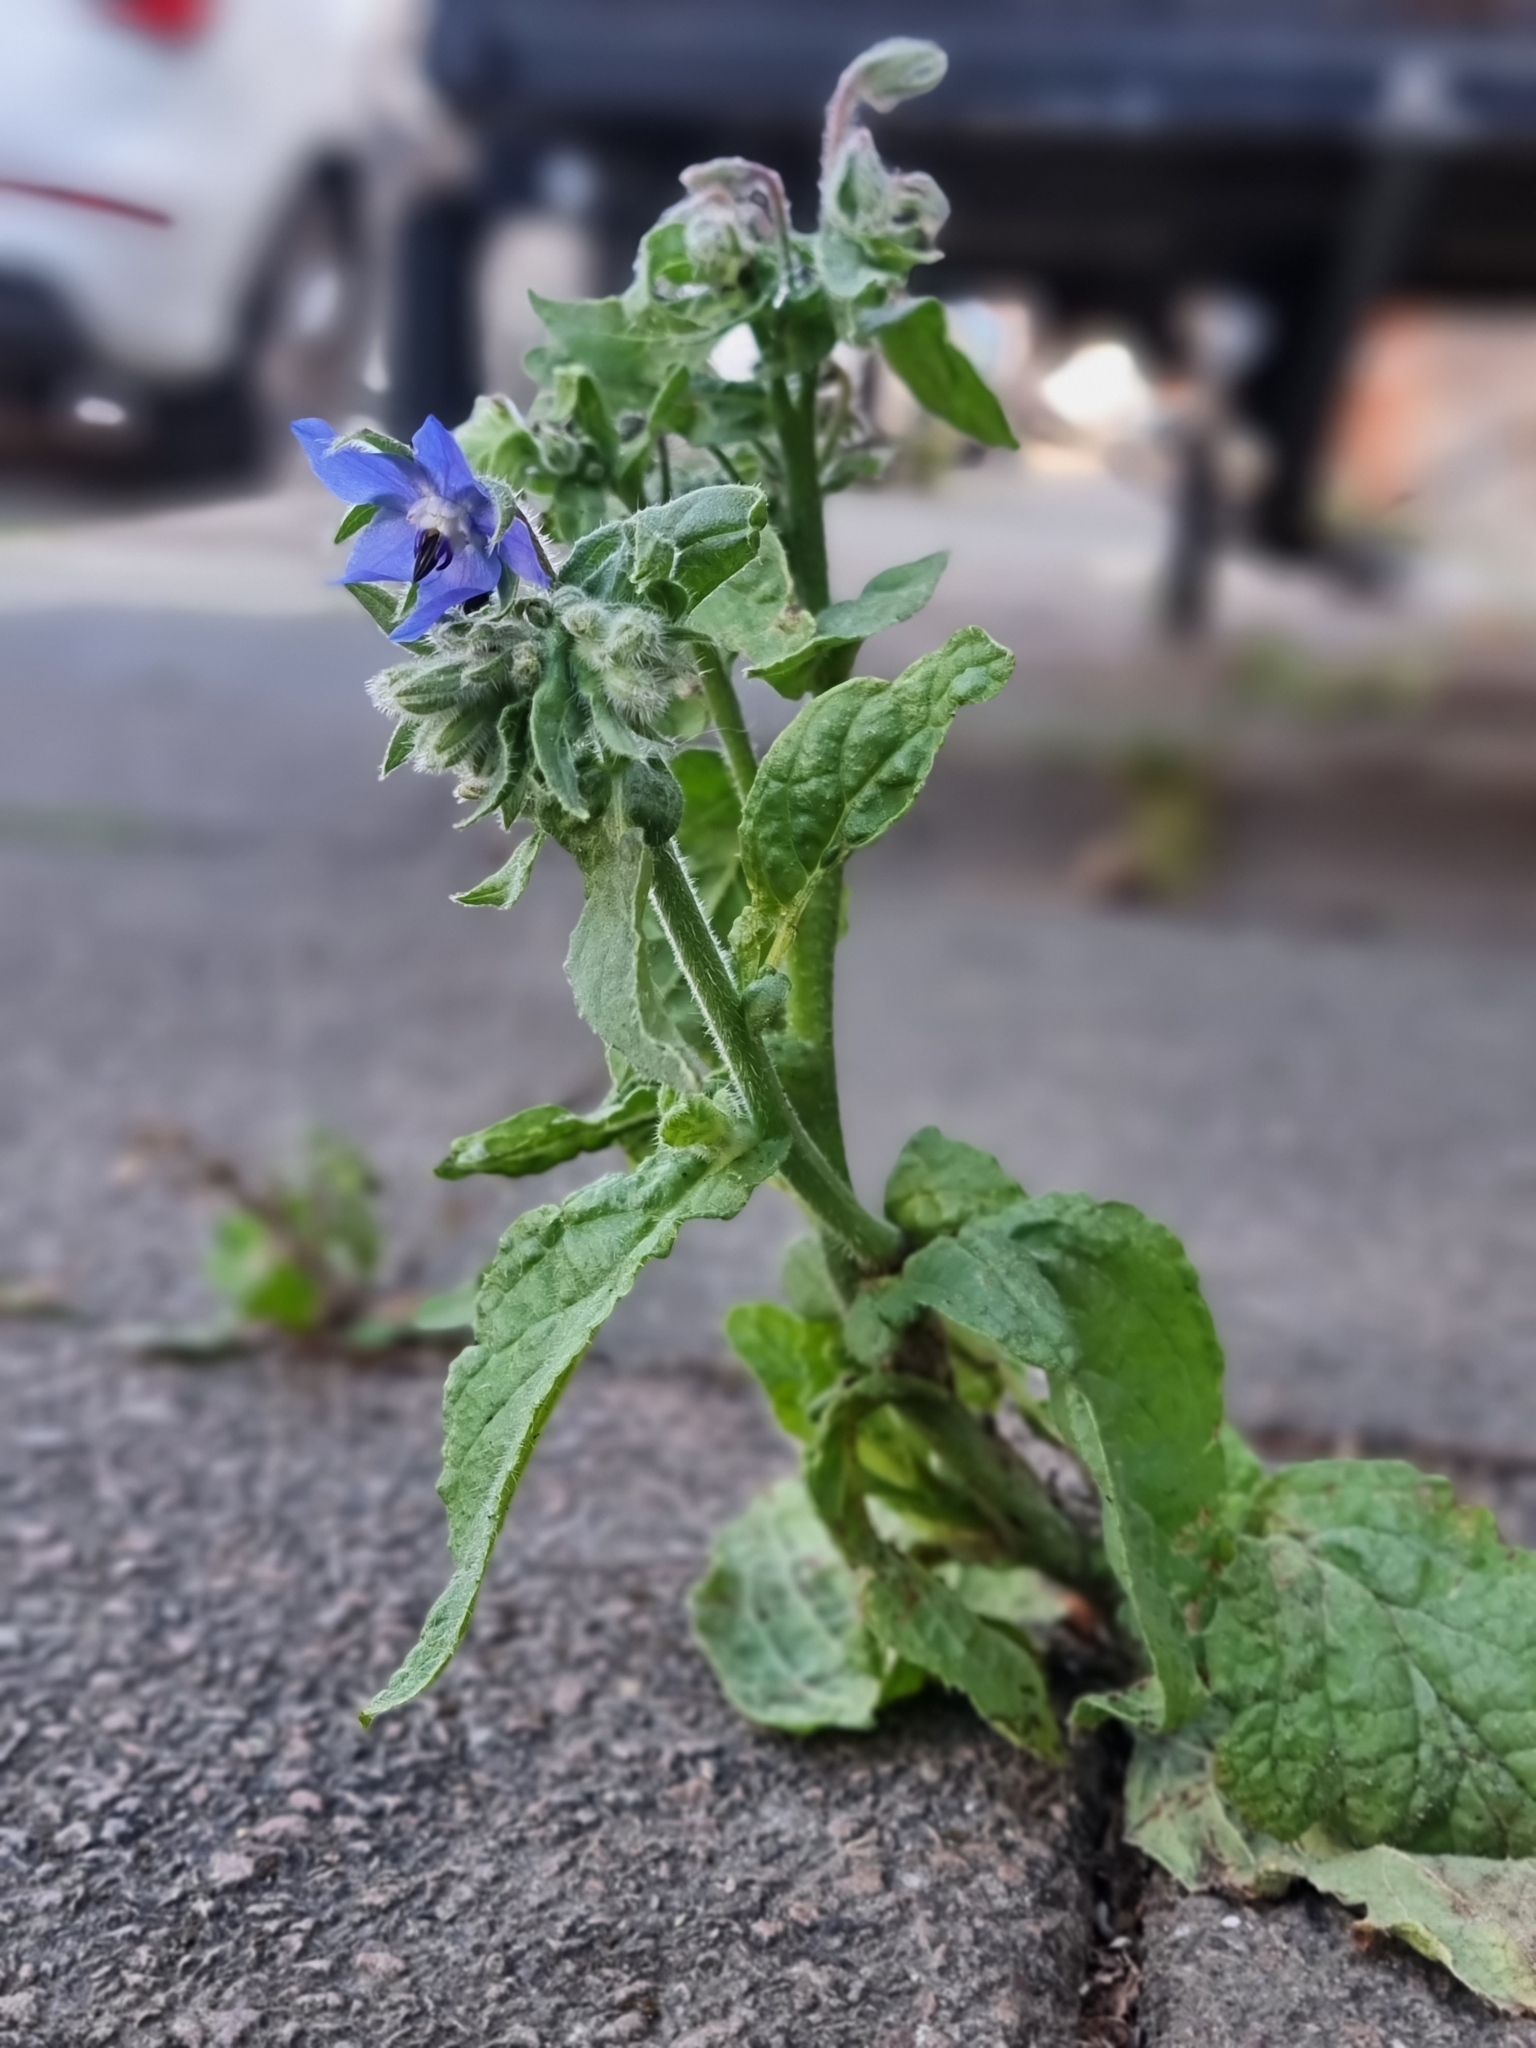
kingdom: Plantae
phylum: Tracheophyta
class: Magnoliopsida
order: Boraginales
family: Boraginaceae
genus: Borago
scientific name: Borago officinalis
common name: Borage
